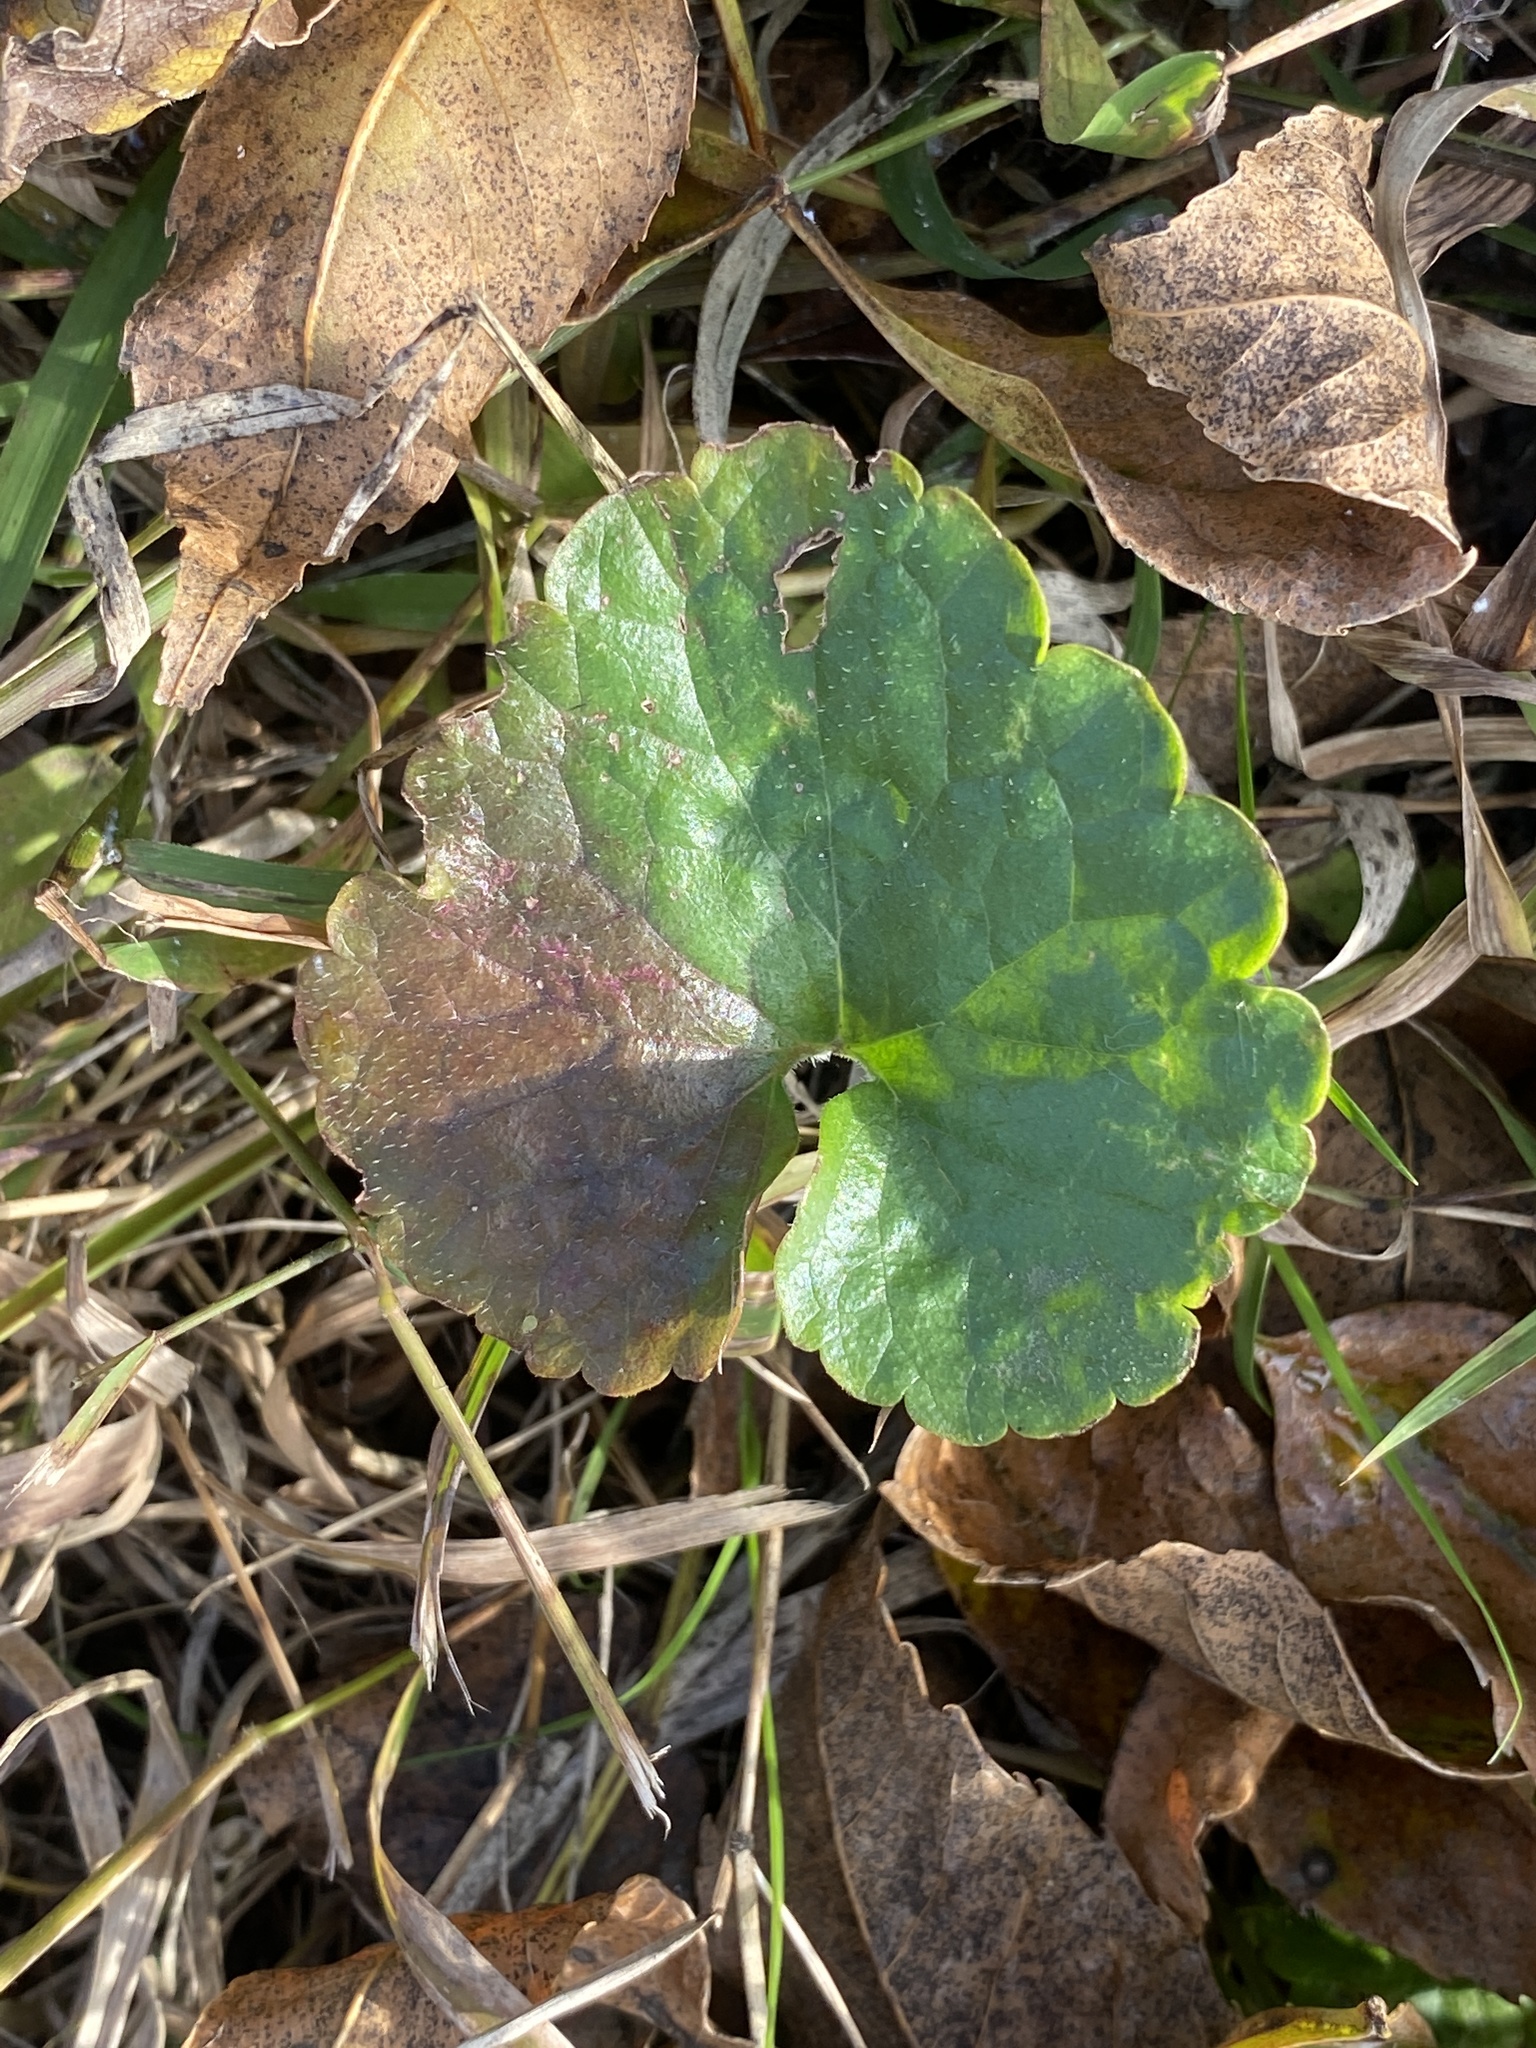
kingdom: Plantae
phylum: Tracheophyta
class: Magnoliopsida
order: Lamiales
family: Lamiaceae
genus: Glechoma
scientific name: Glechoma hederacea
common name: Ground ivy
